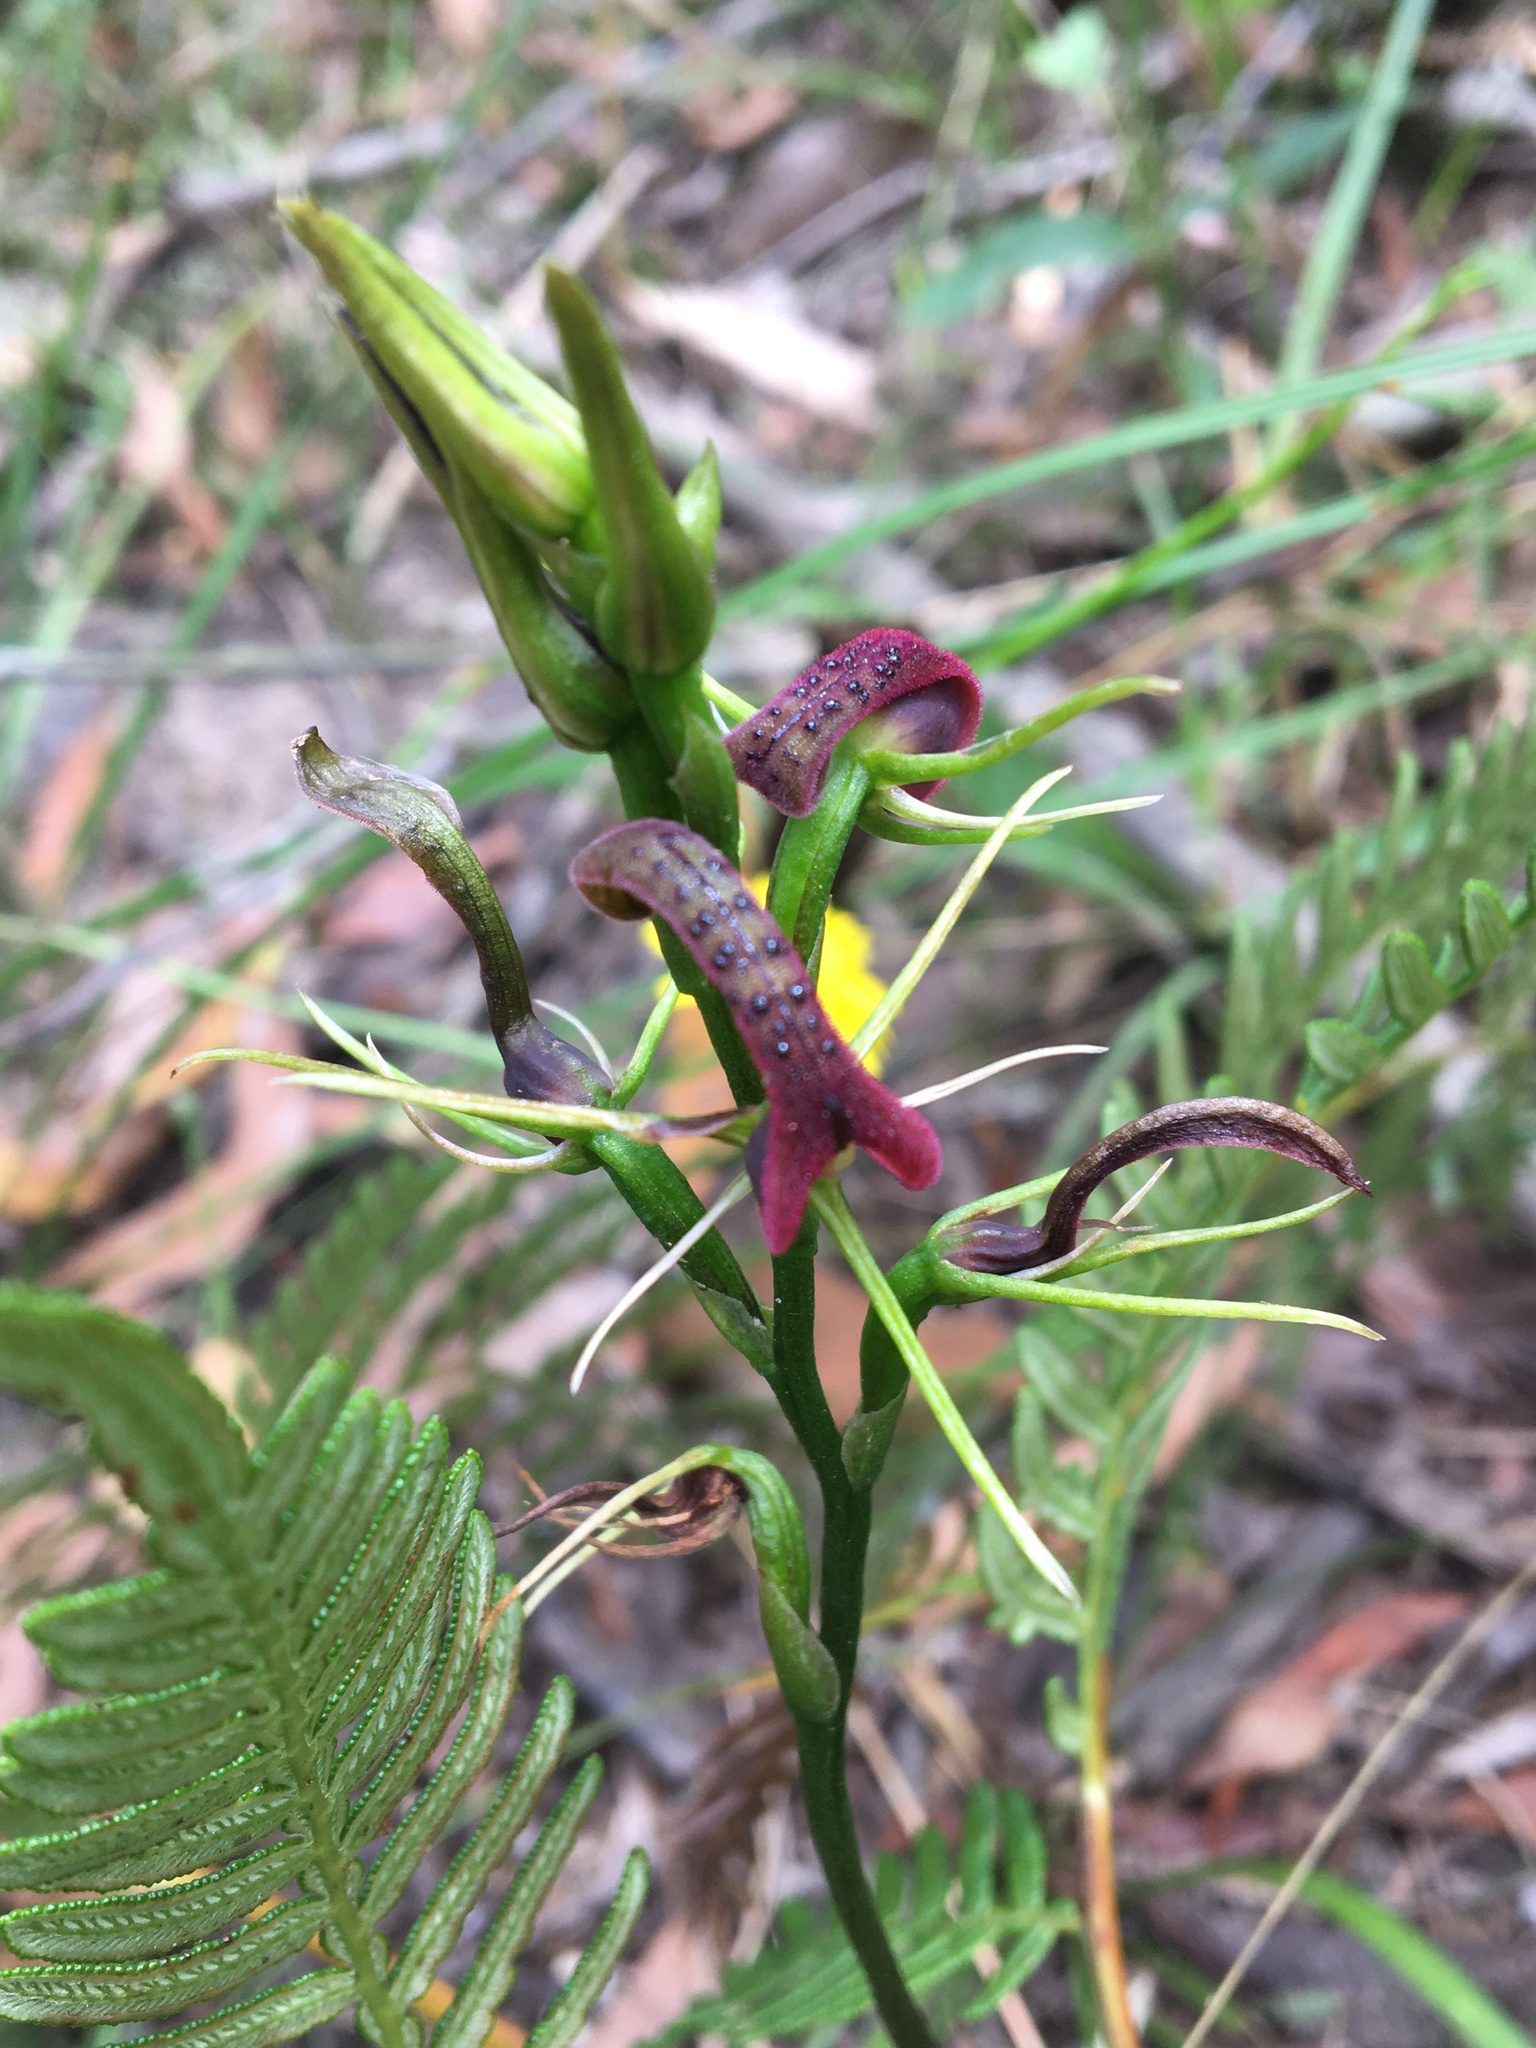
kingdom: Plantae
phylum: Tracheophyta
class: Liliopsida
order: Asparagales
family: Orchidaceae
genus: Cryptostylis
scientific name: Cryptostylis leptochila
